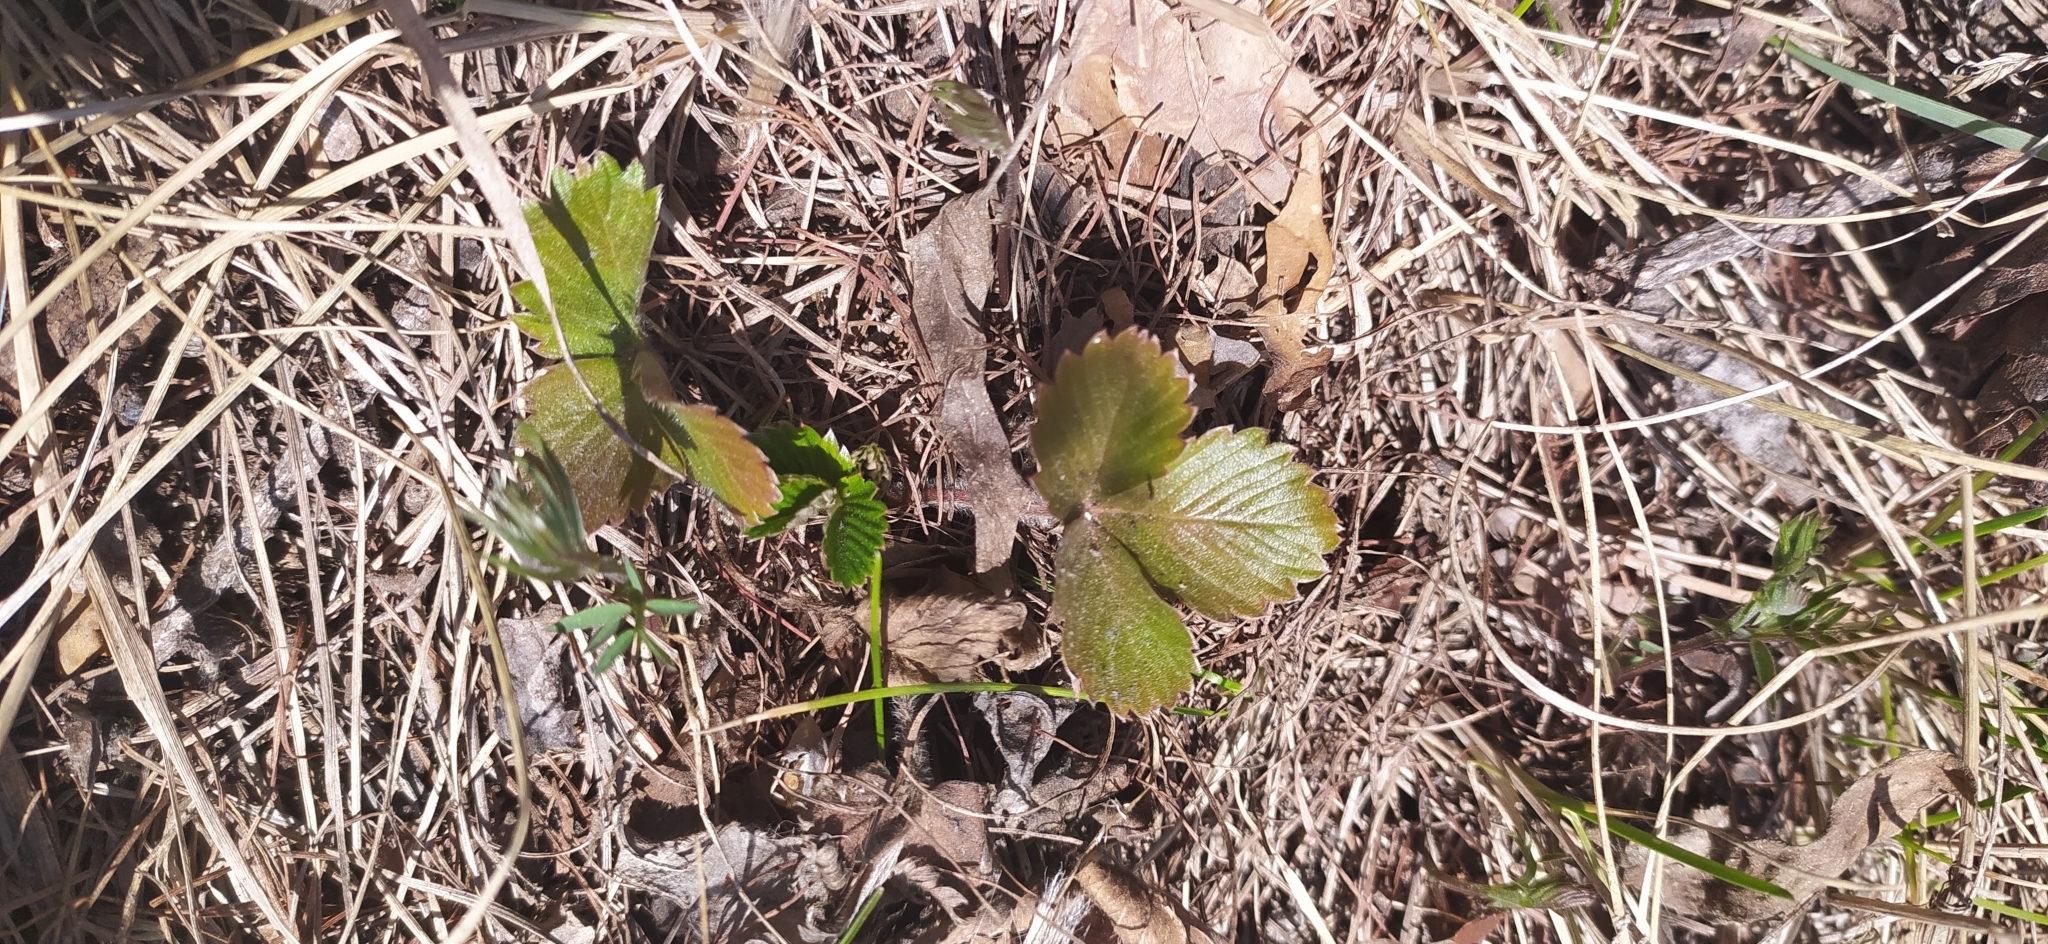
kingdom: Plantae
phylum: Tracheophyta
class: Magnoliopsida
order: Rosales
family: Rosaceae
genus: Fragaria
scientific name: Fragaria vesca
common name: Wild strawberry
